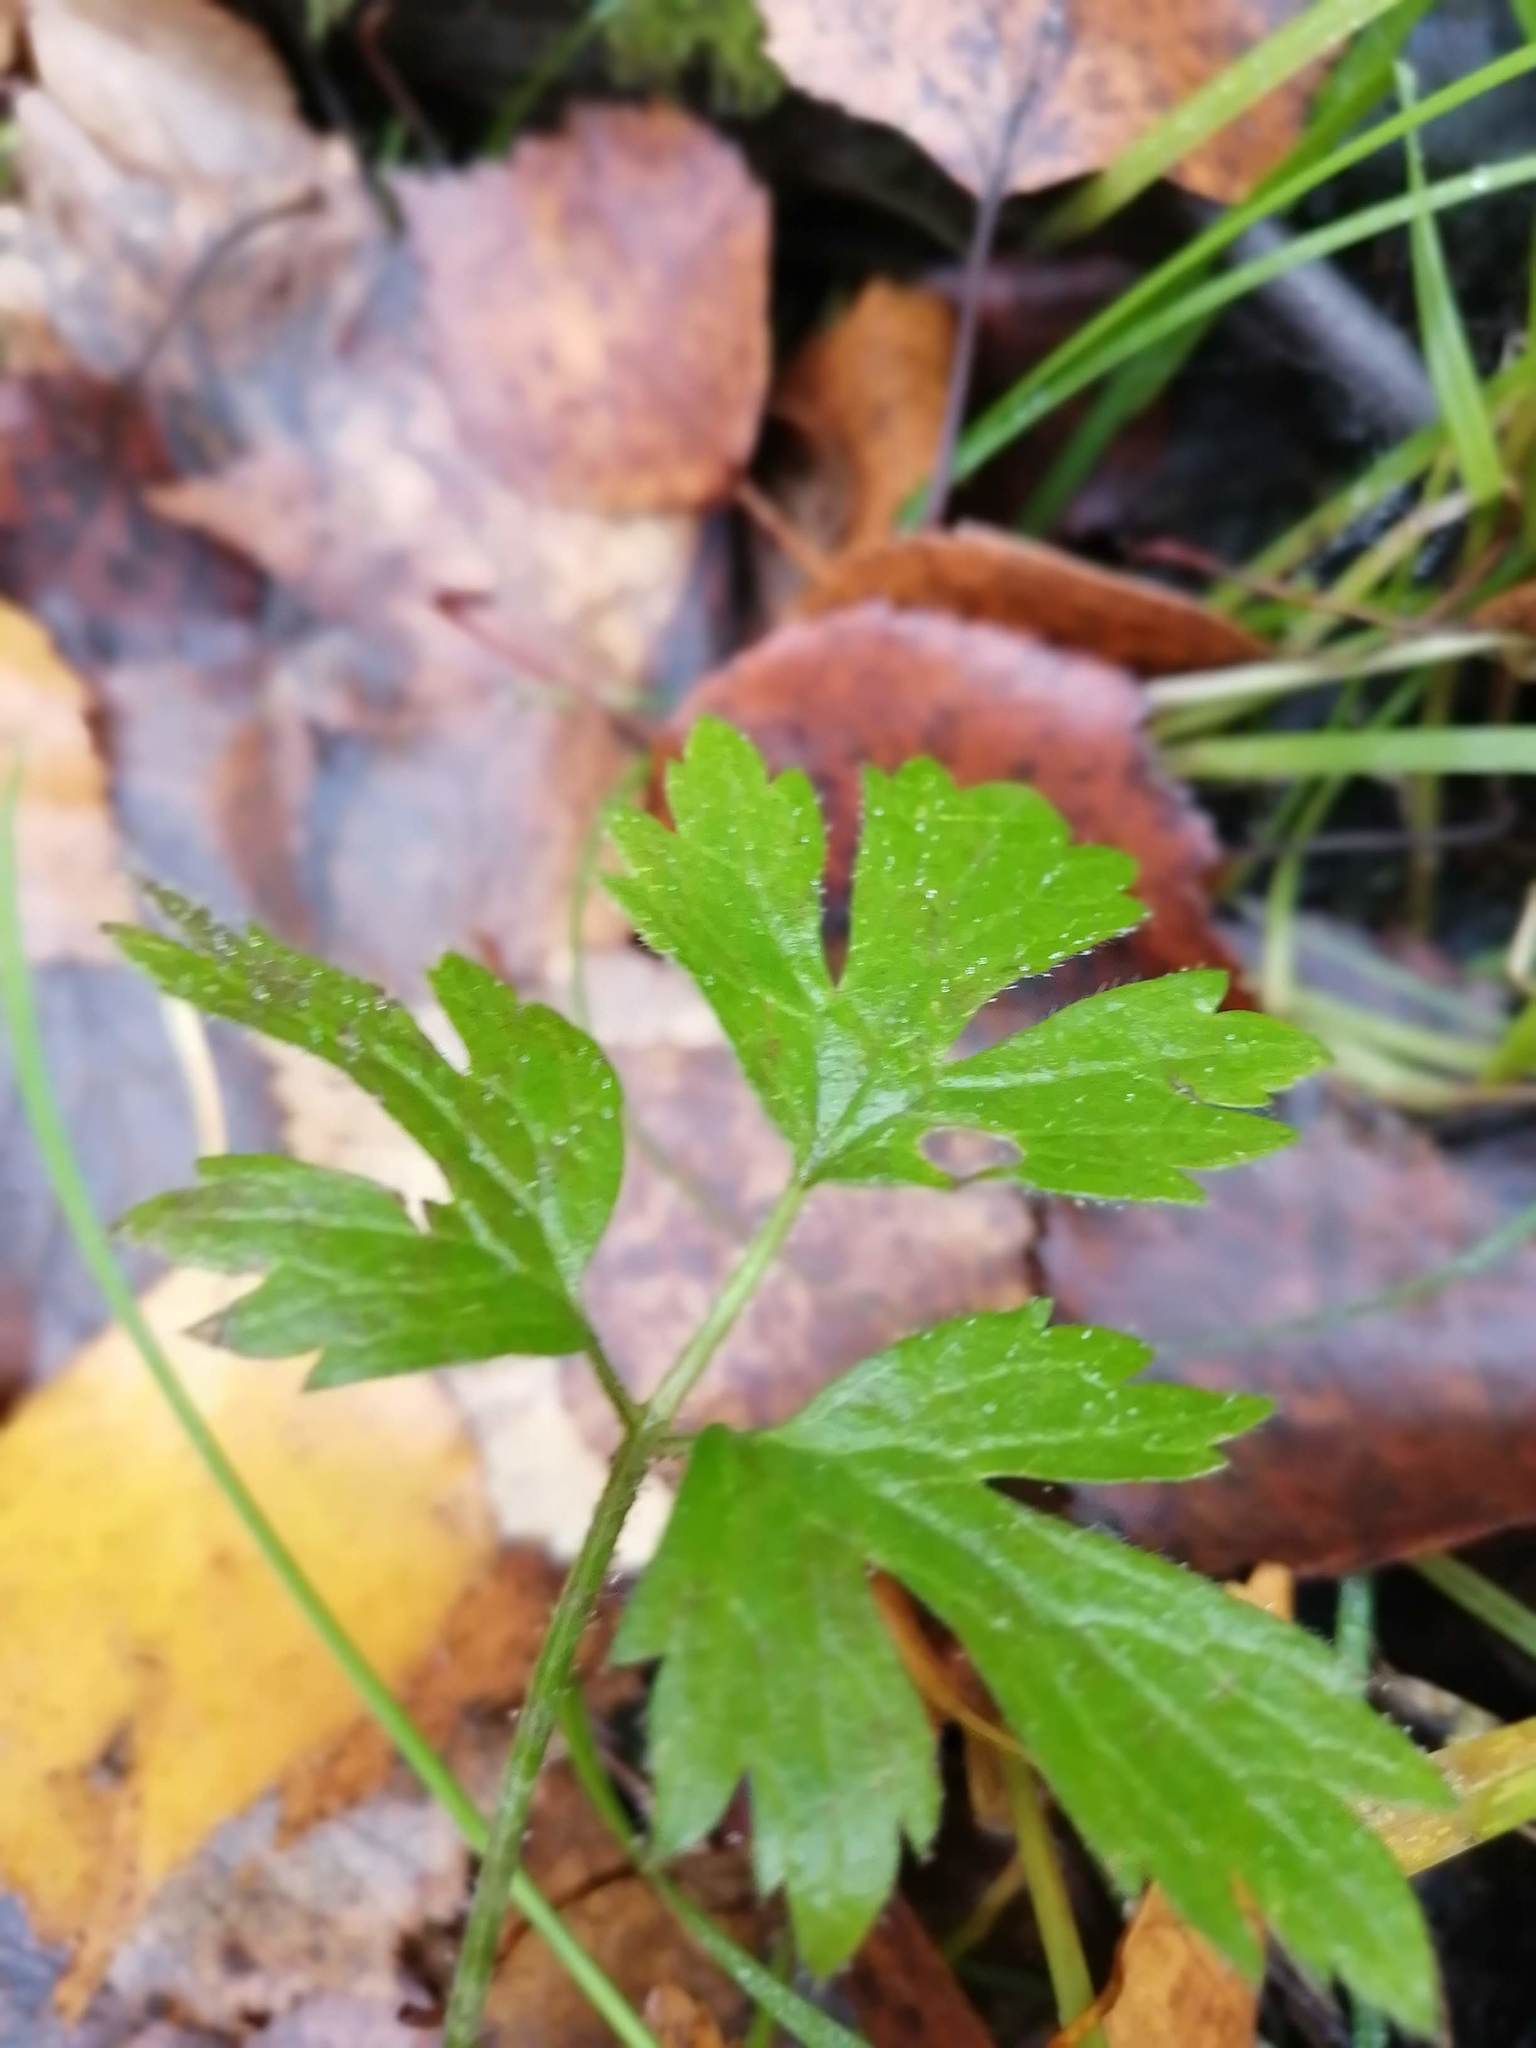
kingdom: Plantae
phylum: Tracheophyta
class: Magnoliopsida
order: Ranunculales
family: Ranunculaceae
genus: Ranunculus
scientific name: Ranunculus repens
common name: Creeping buttercup
